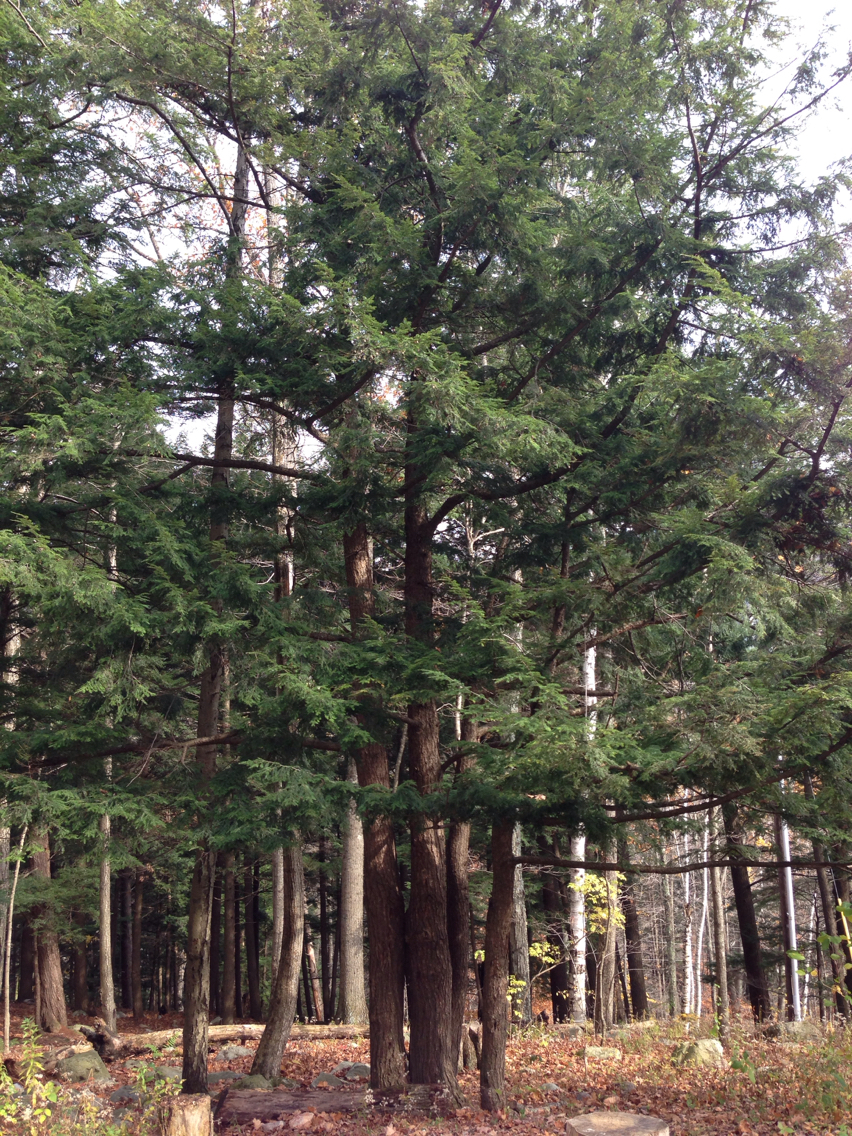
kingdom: Plantae
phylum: Tracheophyta
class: Pinopsida
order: Pinales
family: Pinaceae
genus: Tsuga
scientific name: Tsuga canadensis
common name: Eastern hemlock
